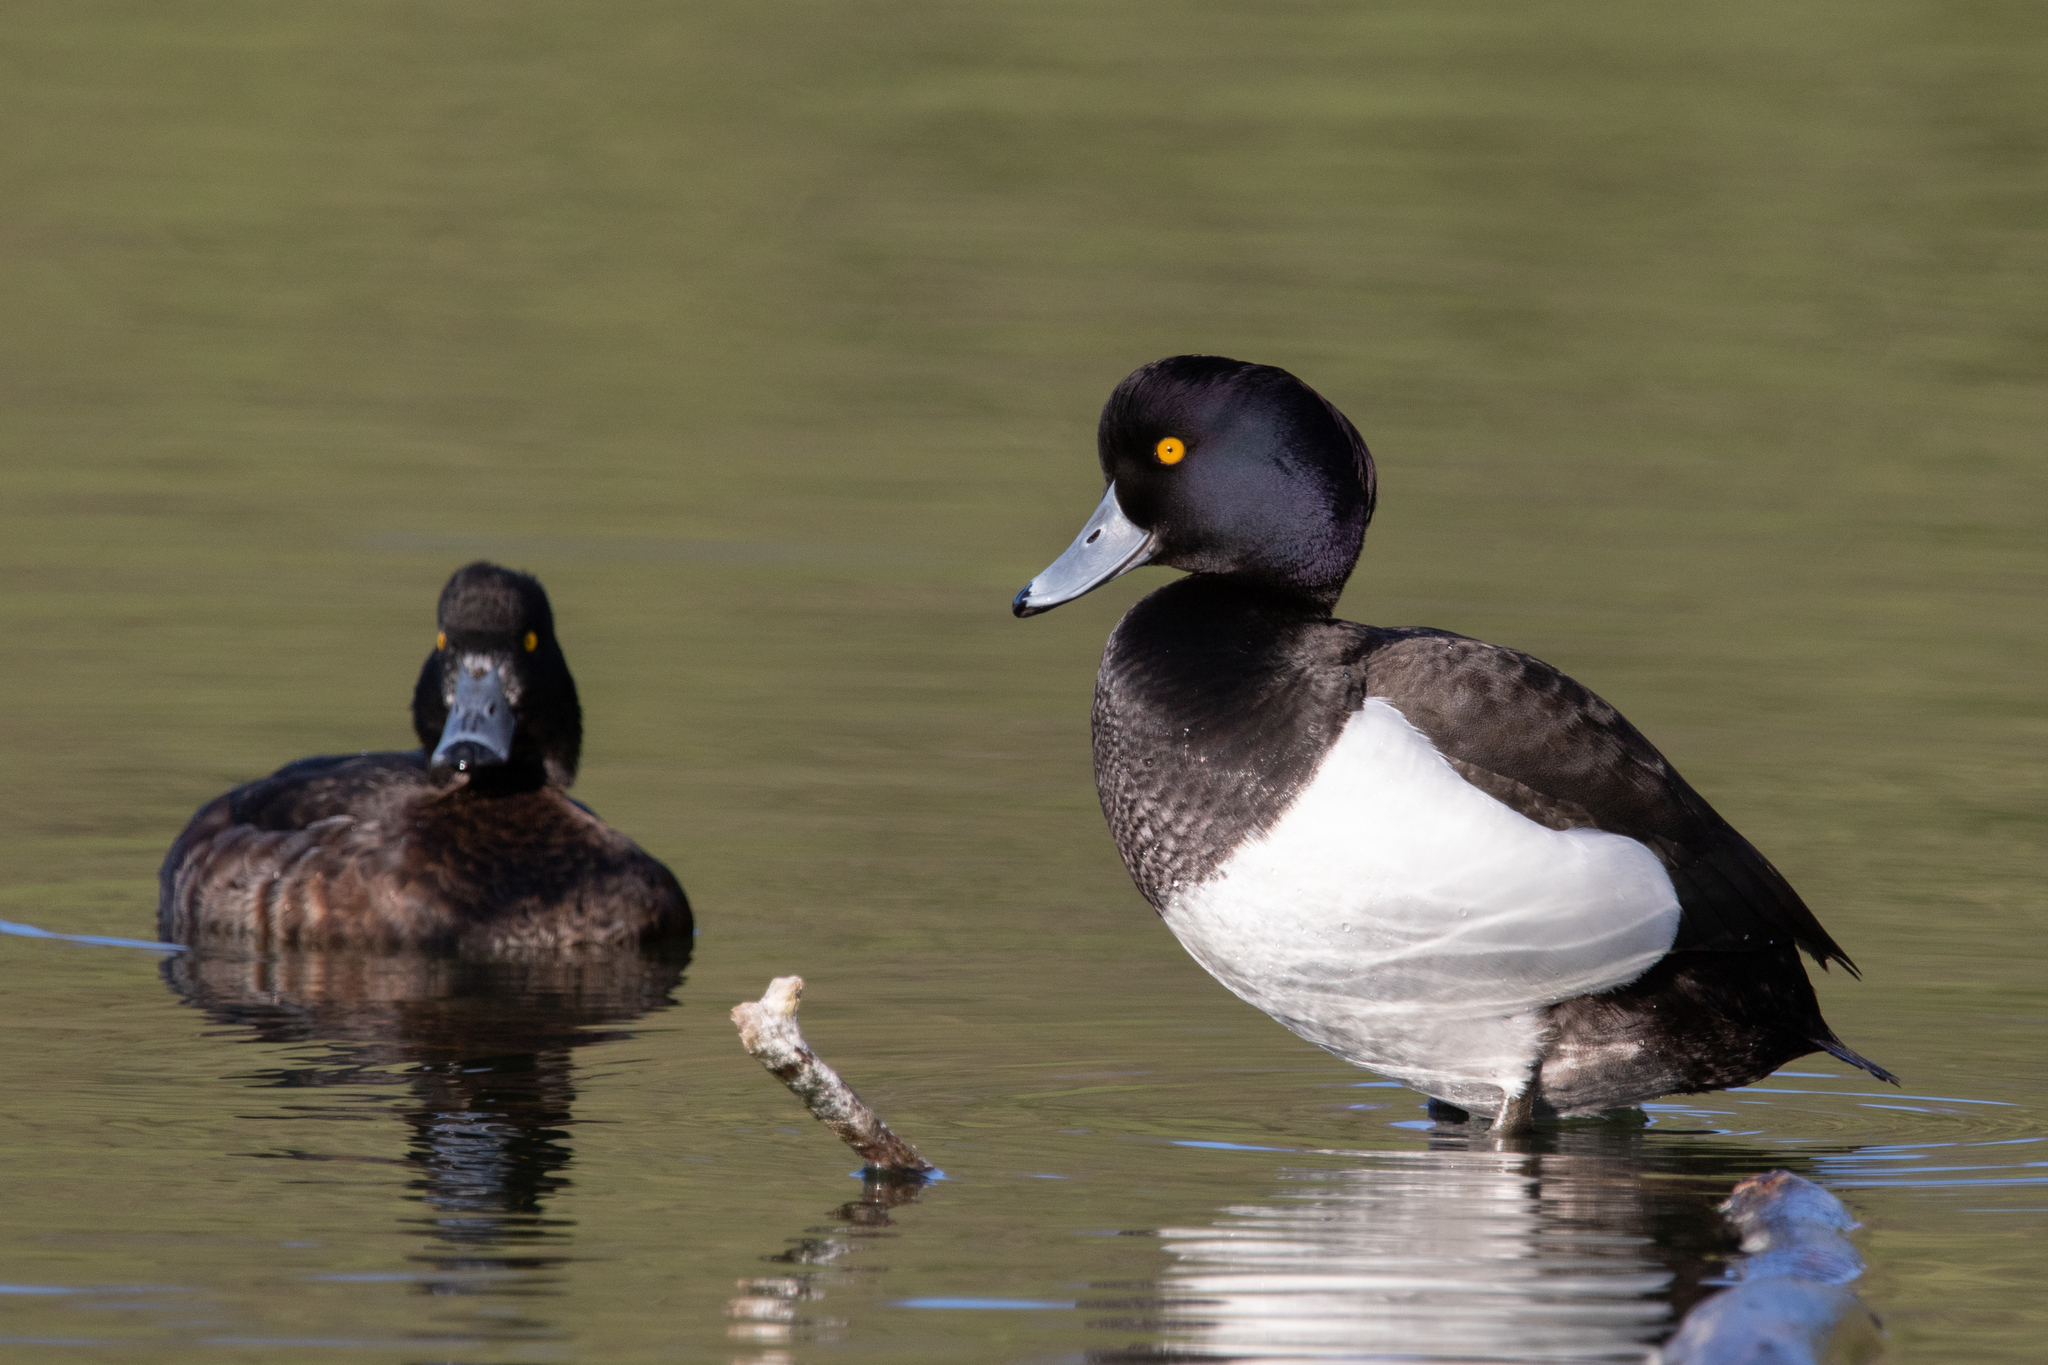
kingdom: Animalia
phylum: Chordata
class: Aves
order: Anseriformes
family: Anatidae
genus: Aythya
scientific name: Aythya fuligula
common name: Tufted duck
